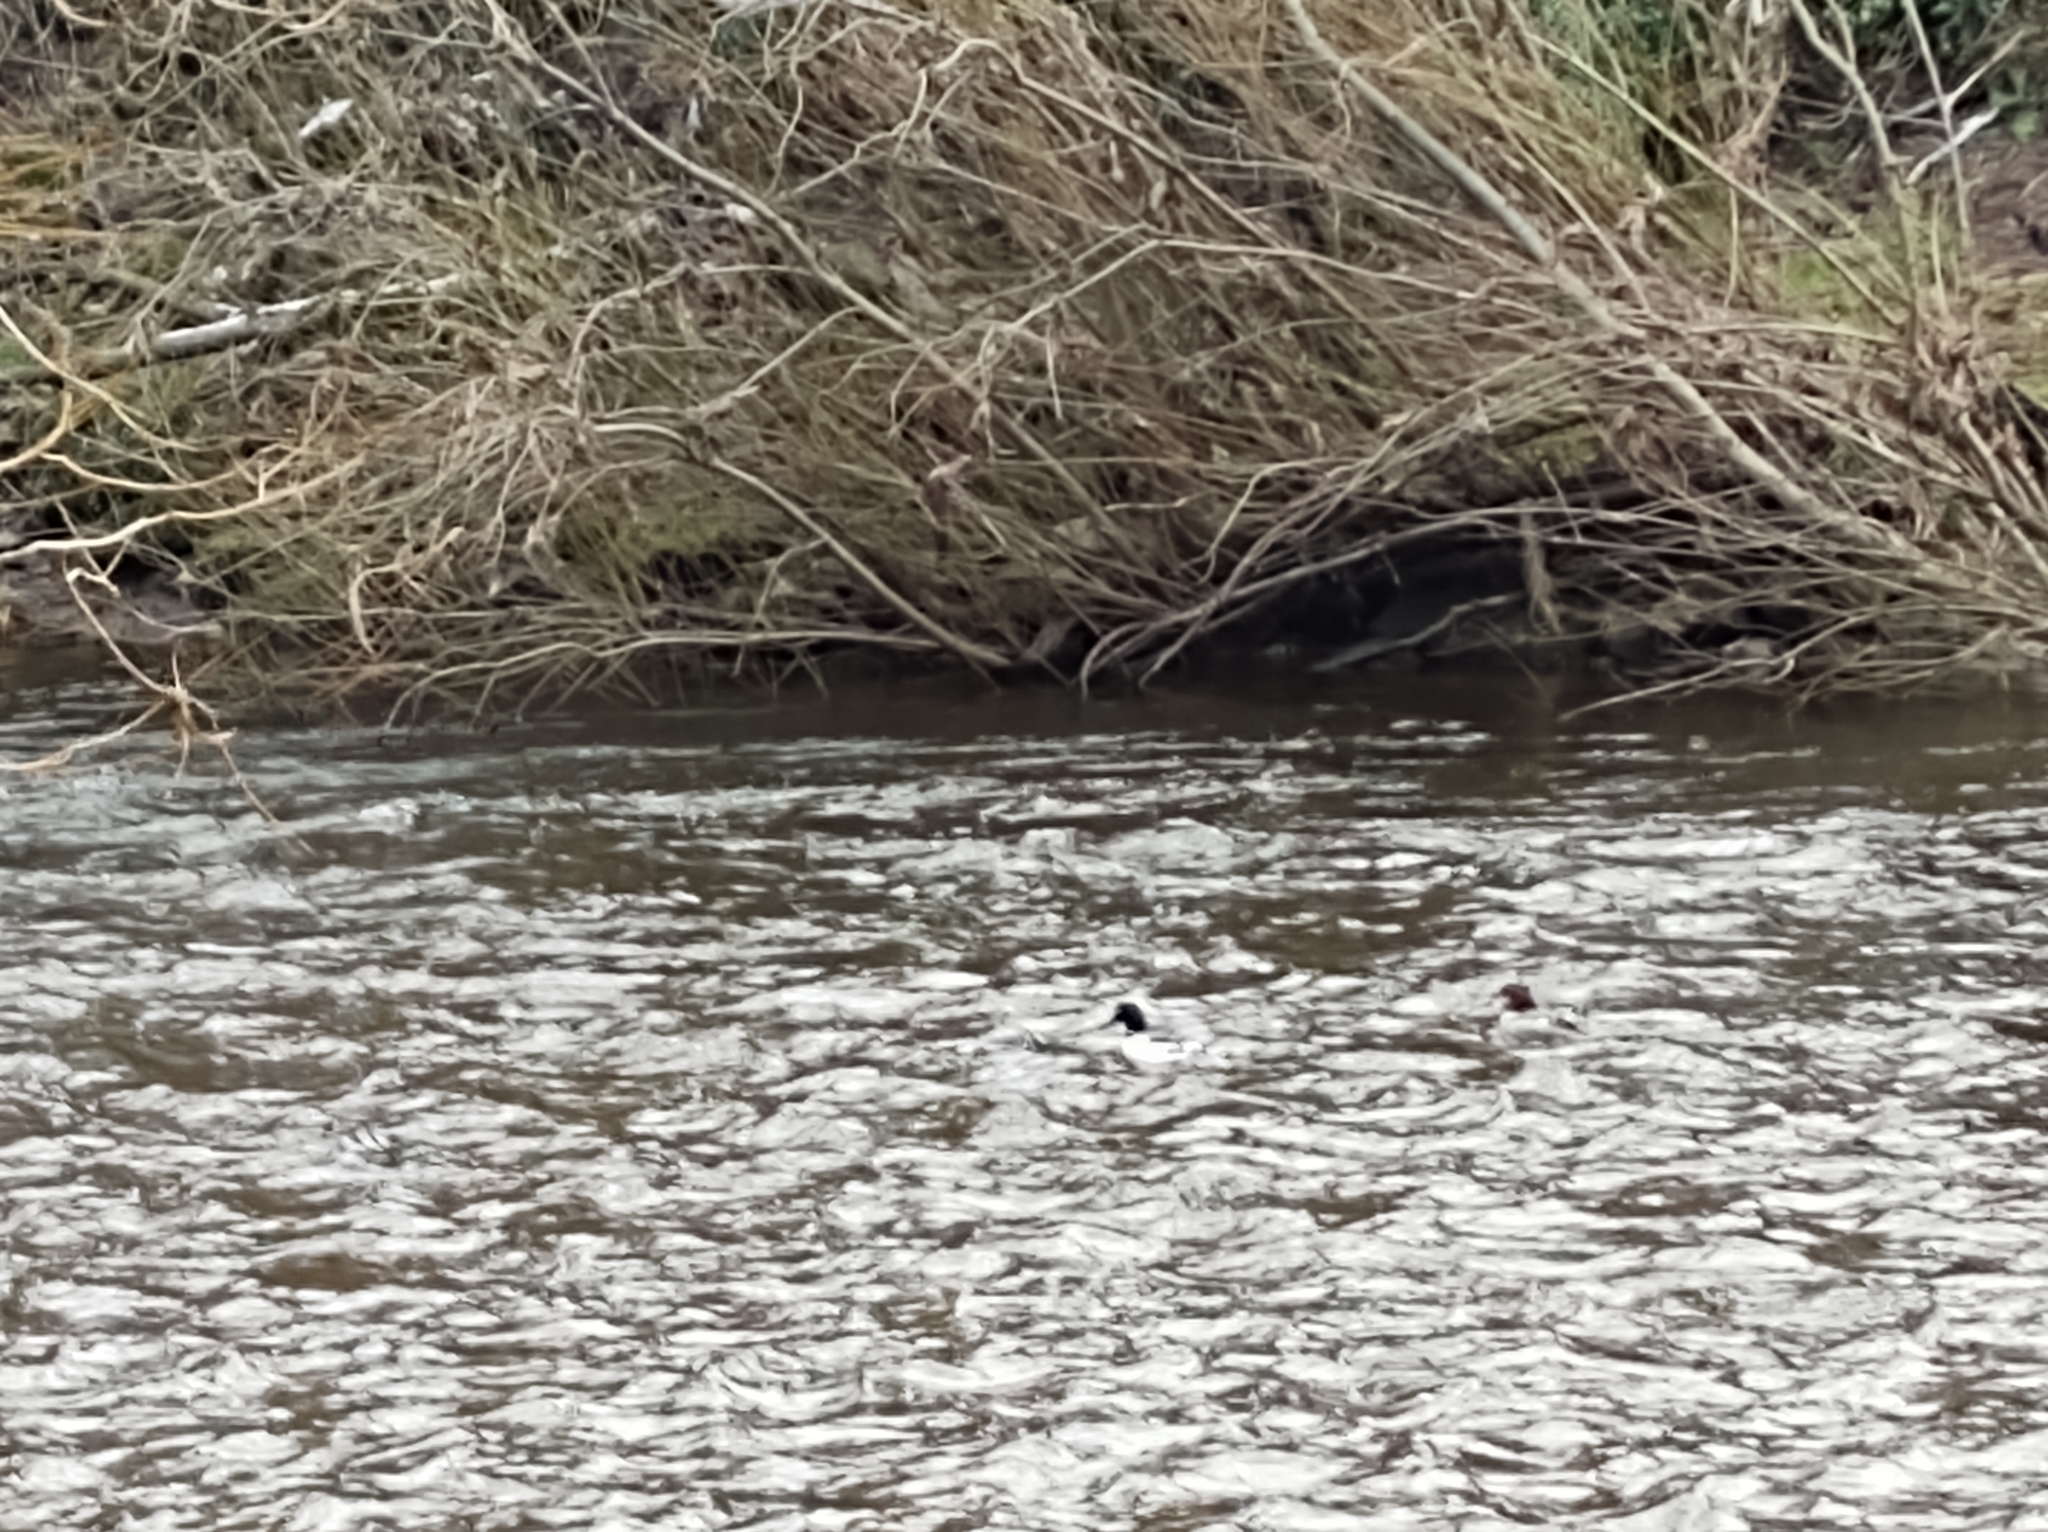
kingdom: Animalia
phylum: Chordata
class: Aves
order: Anseriformes
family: Anatidae
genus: Mergus
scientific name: Mergus merganser
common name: Common merganser
